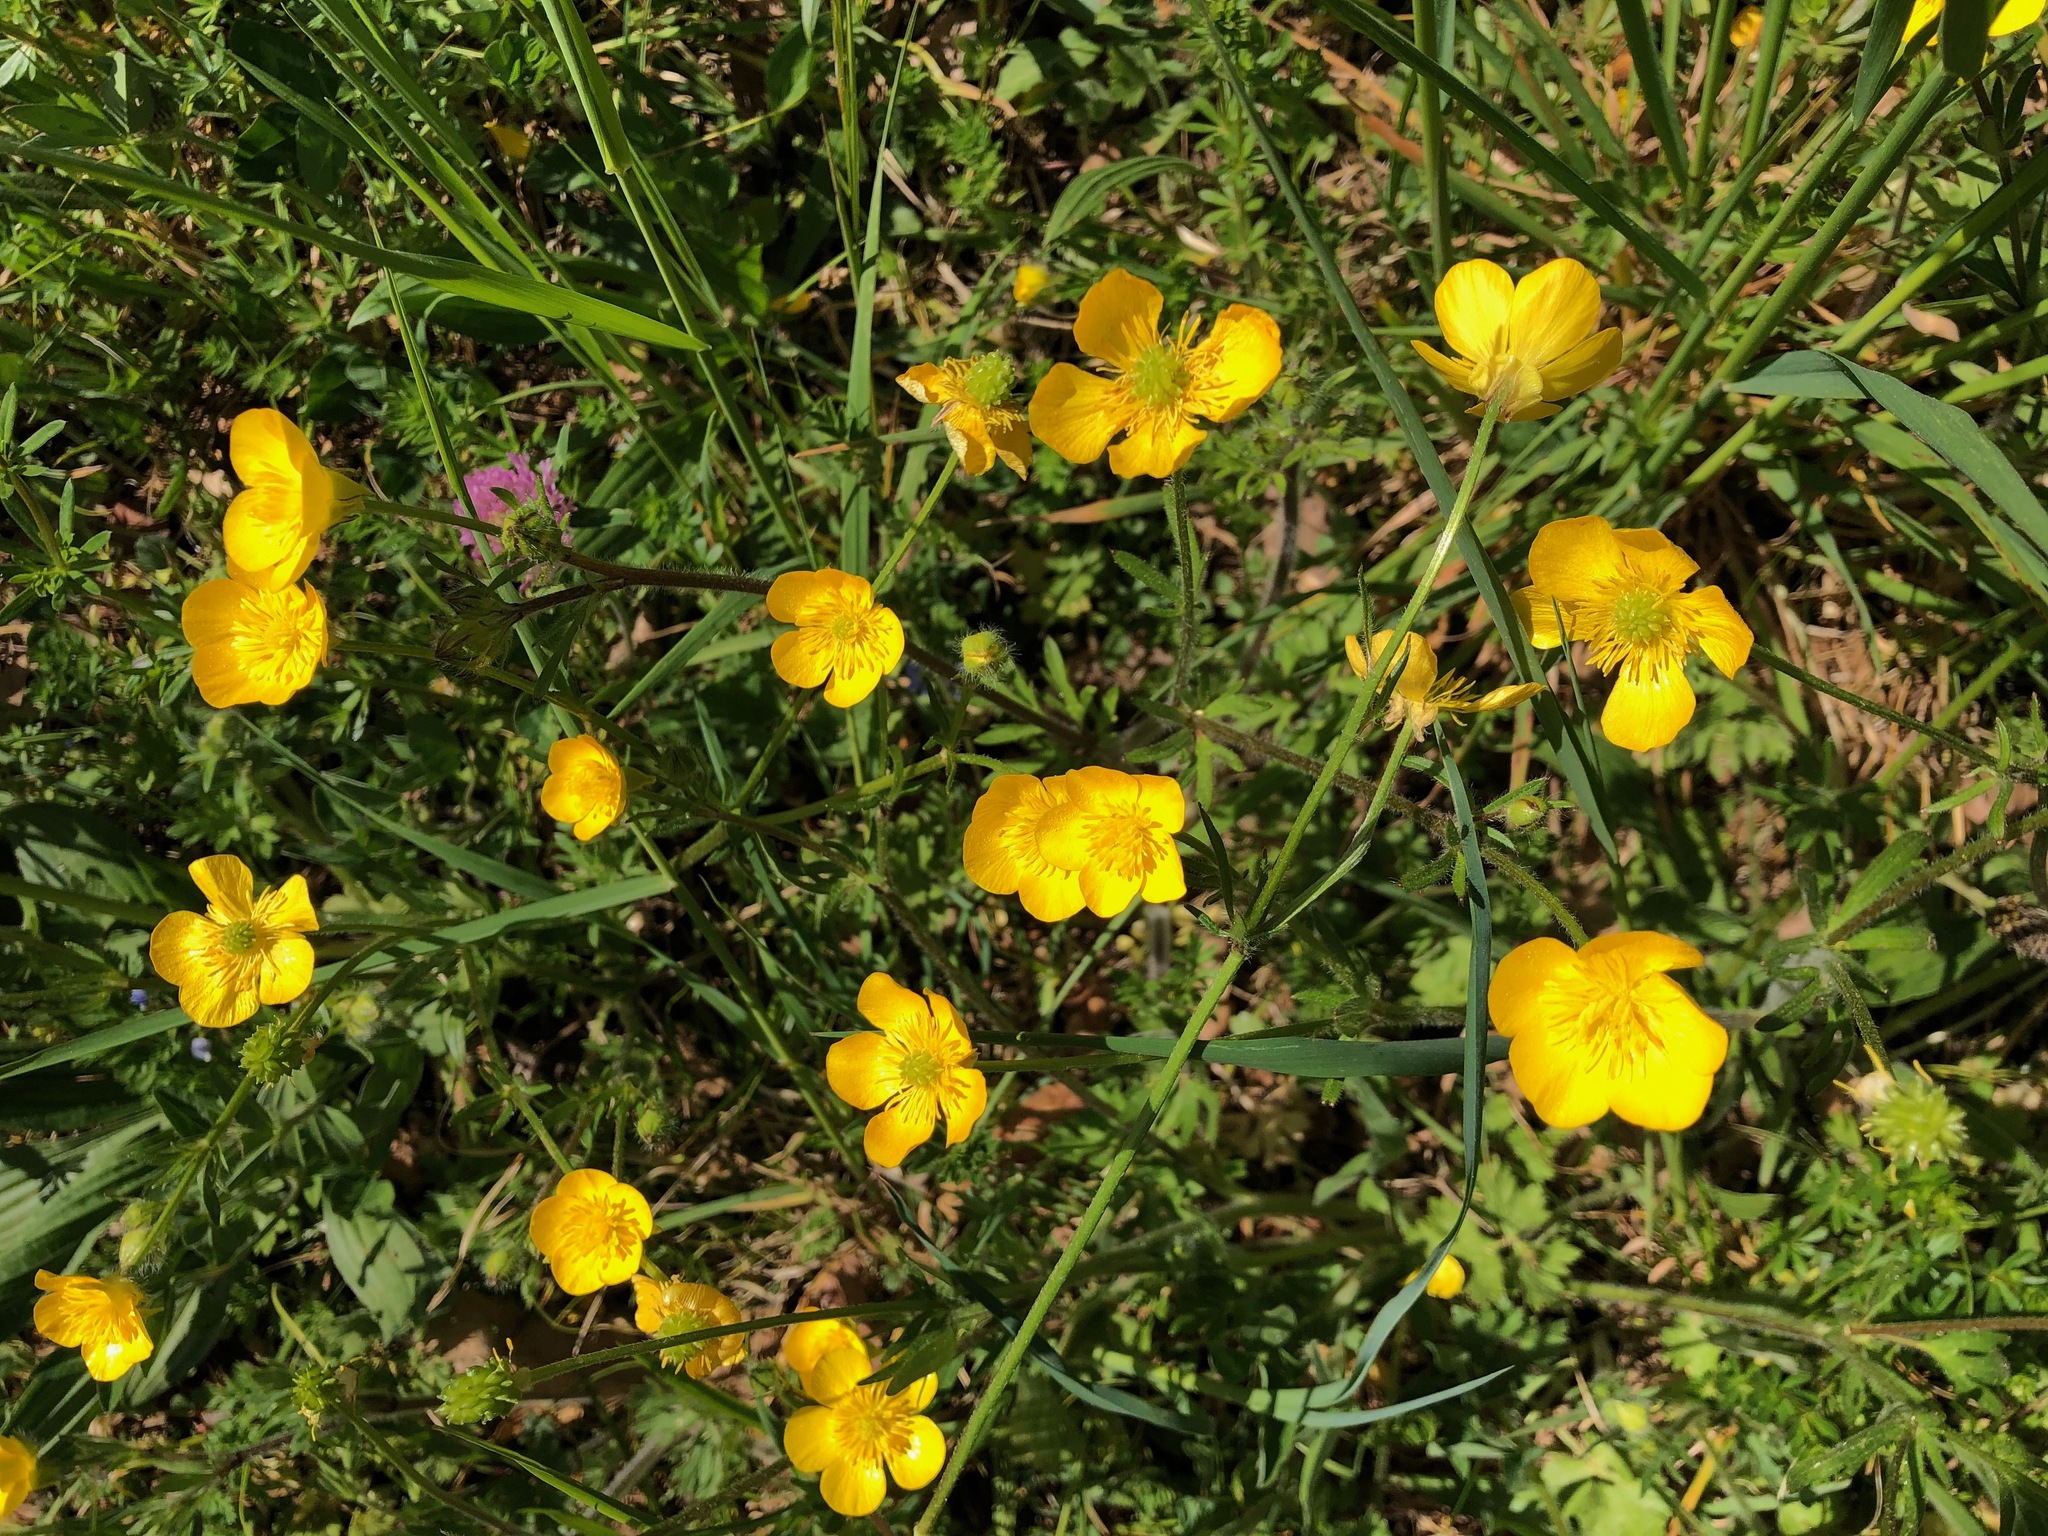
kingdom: Plantae
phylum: Tracheophyta
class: Magnoliopsida
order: Ranunculales
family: Ranunculaceae
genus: Ranunculus
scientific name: Ranunculus bulbosus
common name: Bulbous buttercup
